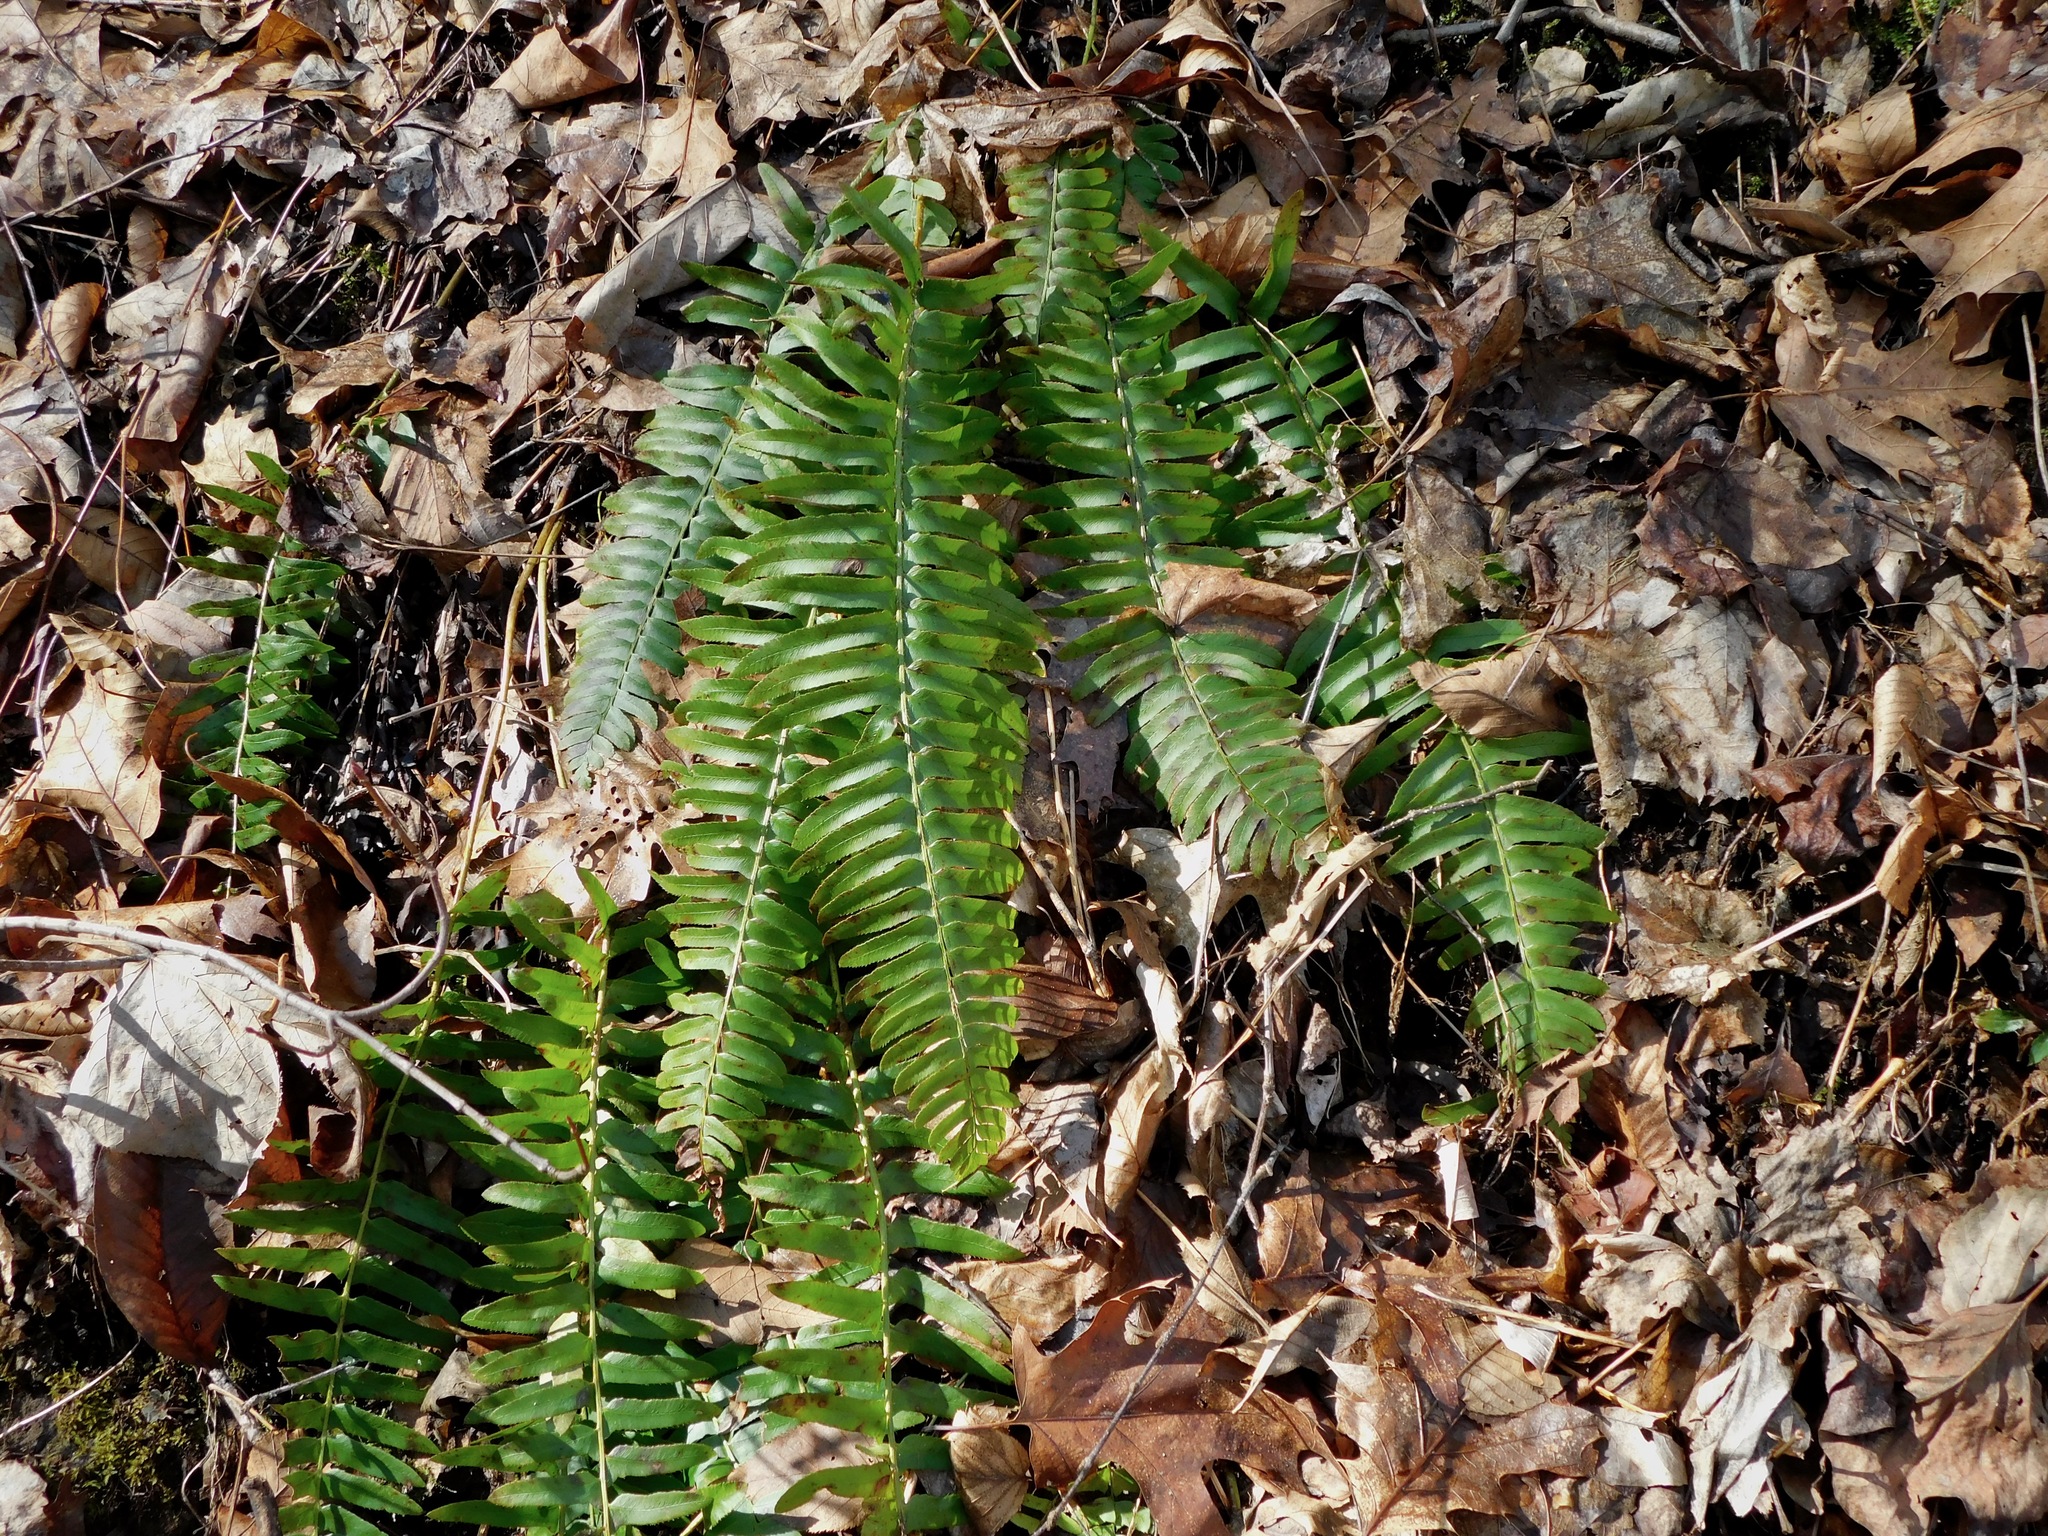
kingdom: Plantae
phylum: Tracheophyta
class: Polypodiopsida
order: Polypodiales
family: Dryopteridaceae
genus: Polystichum
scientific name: Polystichum acrostichoides
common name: Christmas fern
